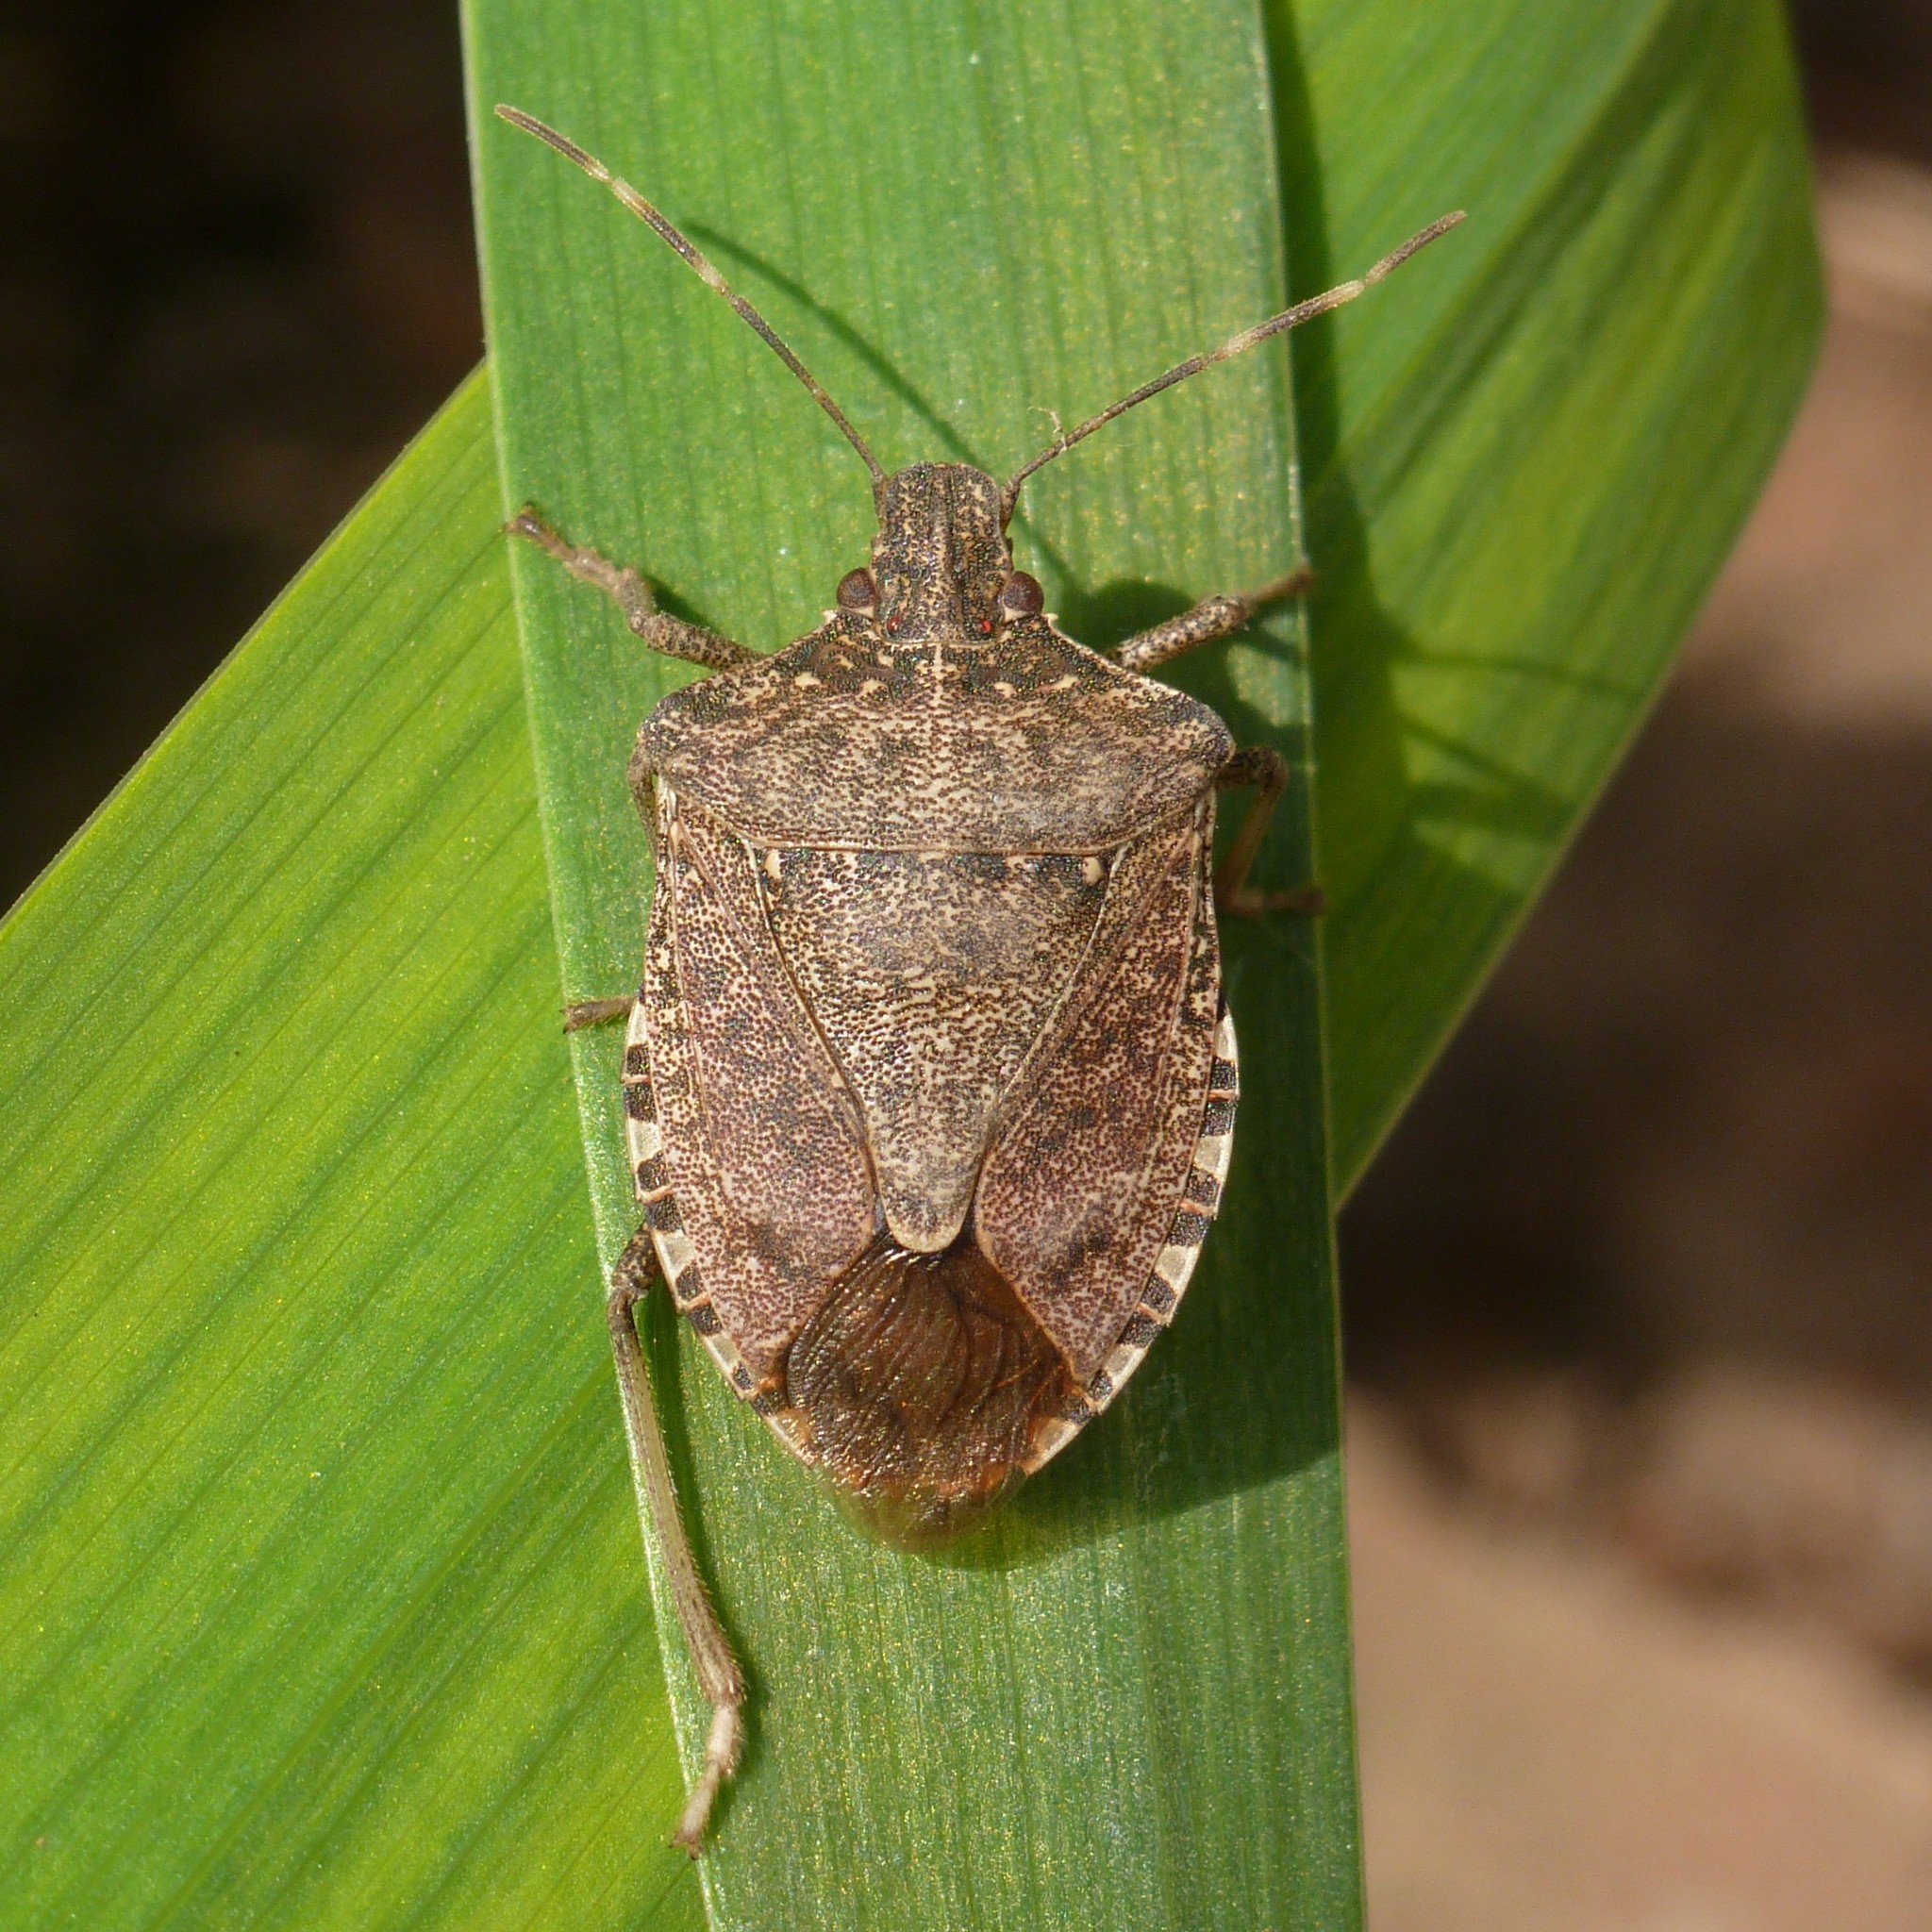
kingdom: Animalia
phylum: Arthropoda
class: Insecta
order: Hemiptera
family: Pentatomidae
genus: Halyomorpha
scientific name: Halyomorpha halys
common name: Brown marmorated stink bug
